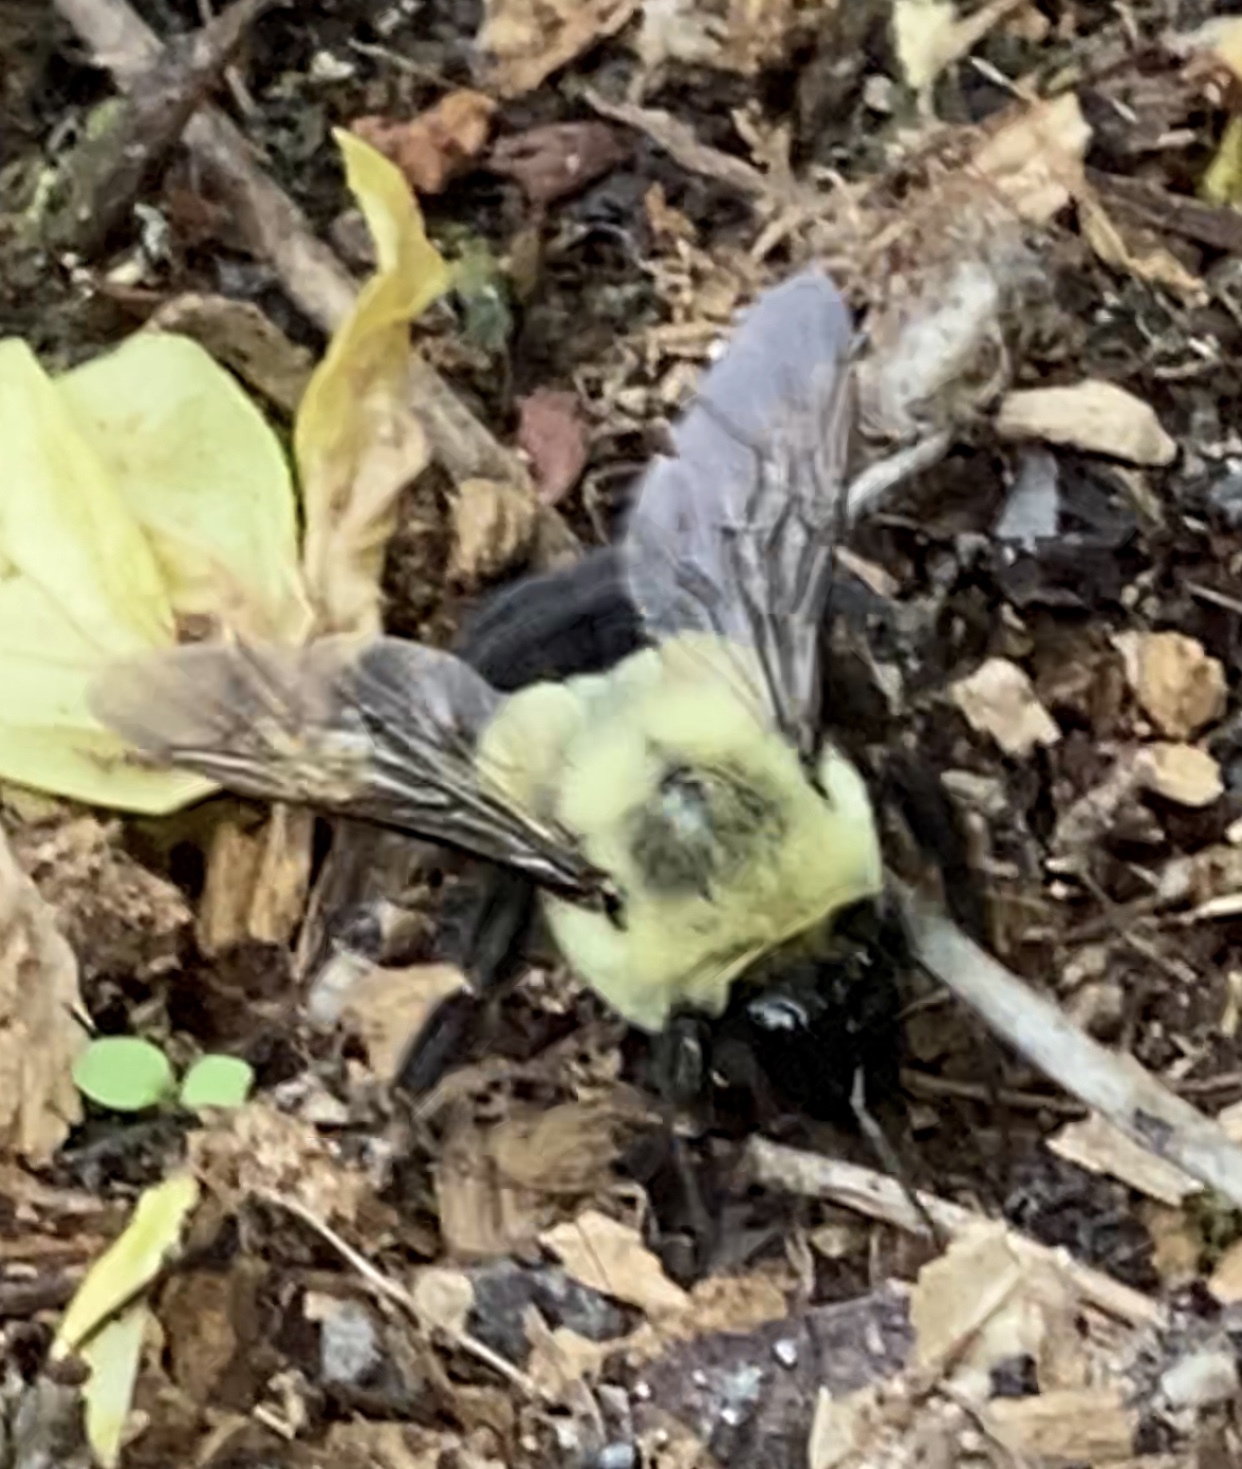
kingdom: Animalia
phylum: Arthropoda
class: Insecta
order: Hymenoptera
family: Apidae
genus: Bombus
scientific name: Bombus impatiens
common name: Common eastern bumble bee
